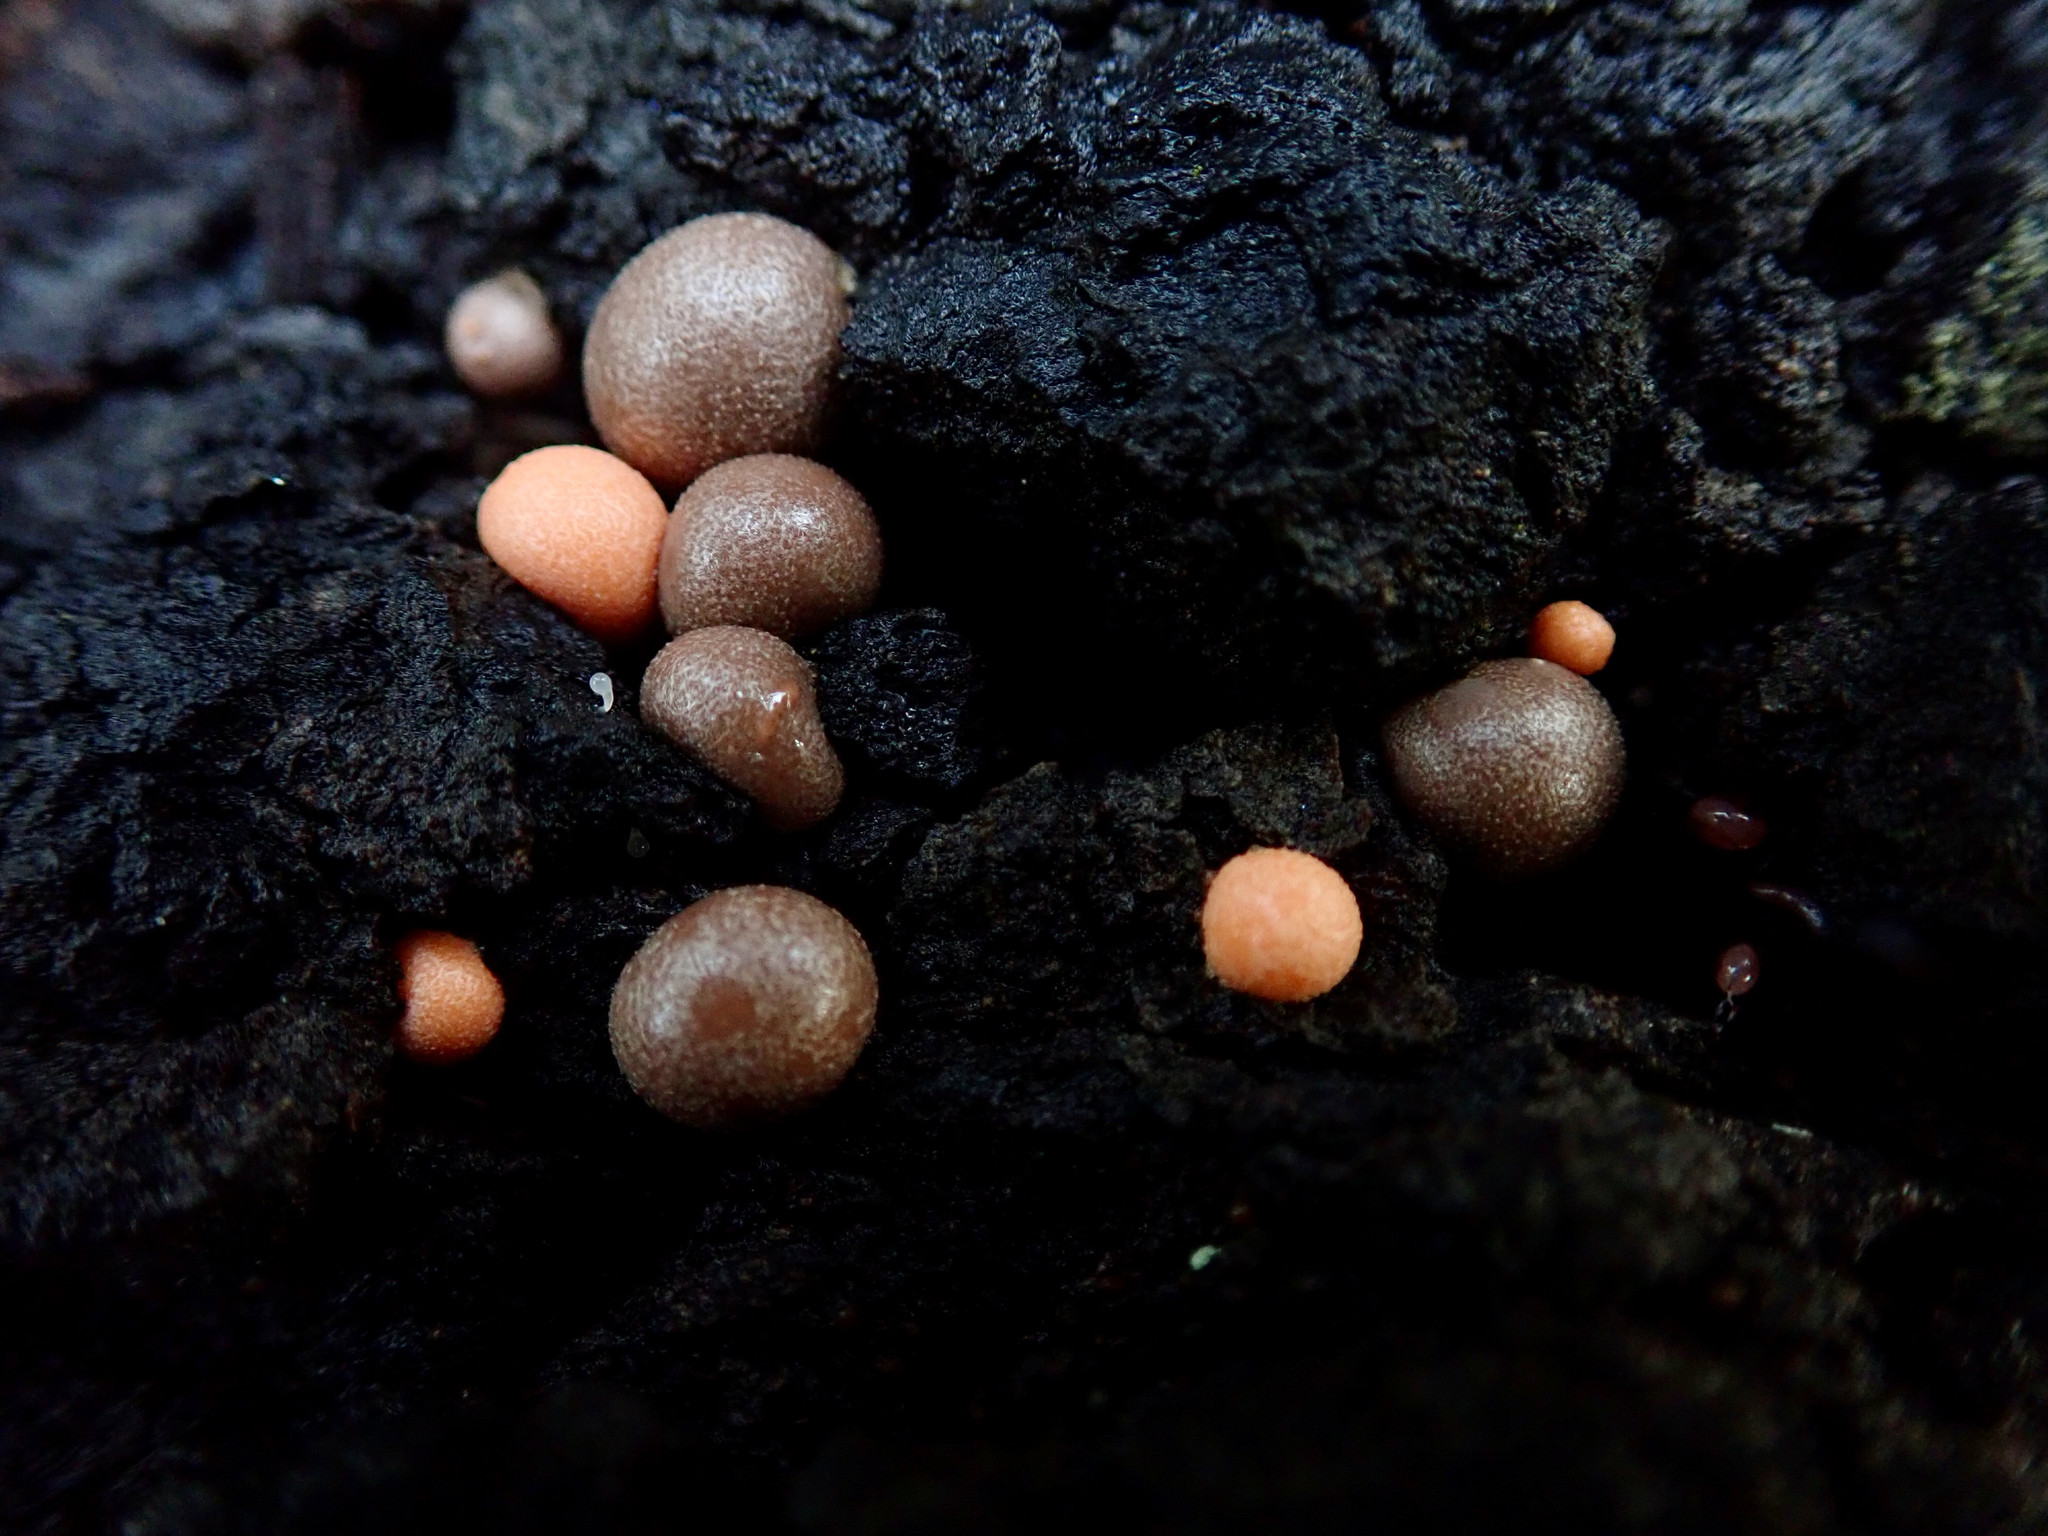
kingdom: Protozoa
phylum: Mycetozoa
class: Myxomycetes
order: Cribrariales
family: Tubiferaceae
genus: Lycogala
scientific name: Lycogala epidendrum
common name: Wolf's milk
